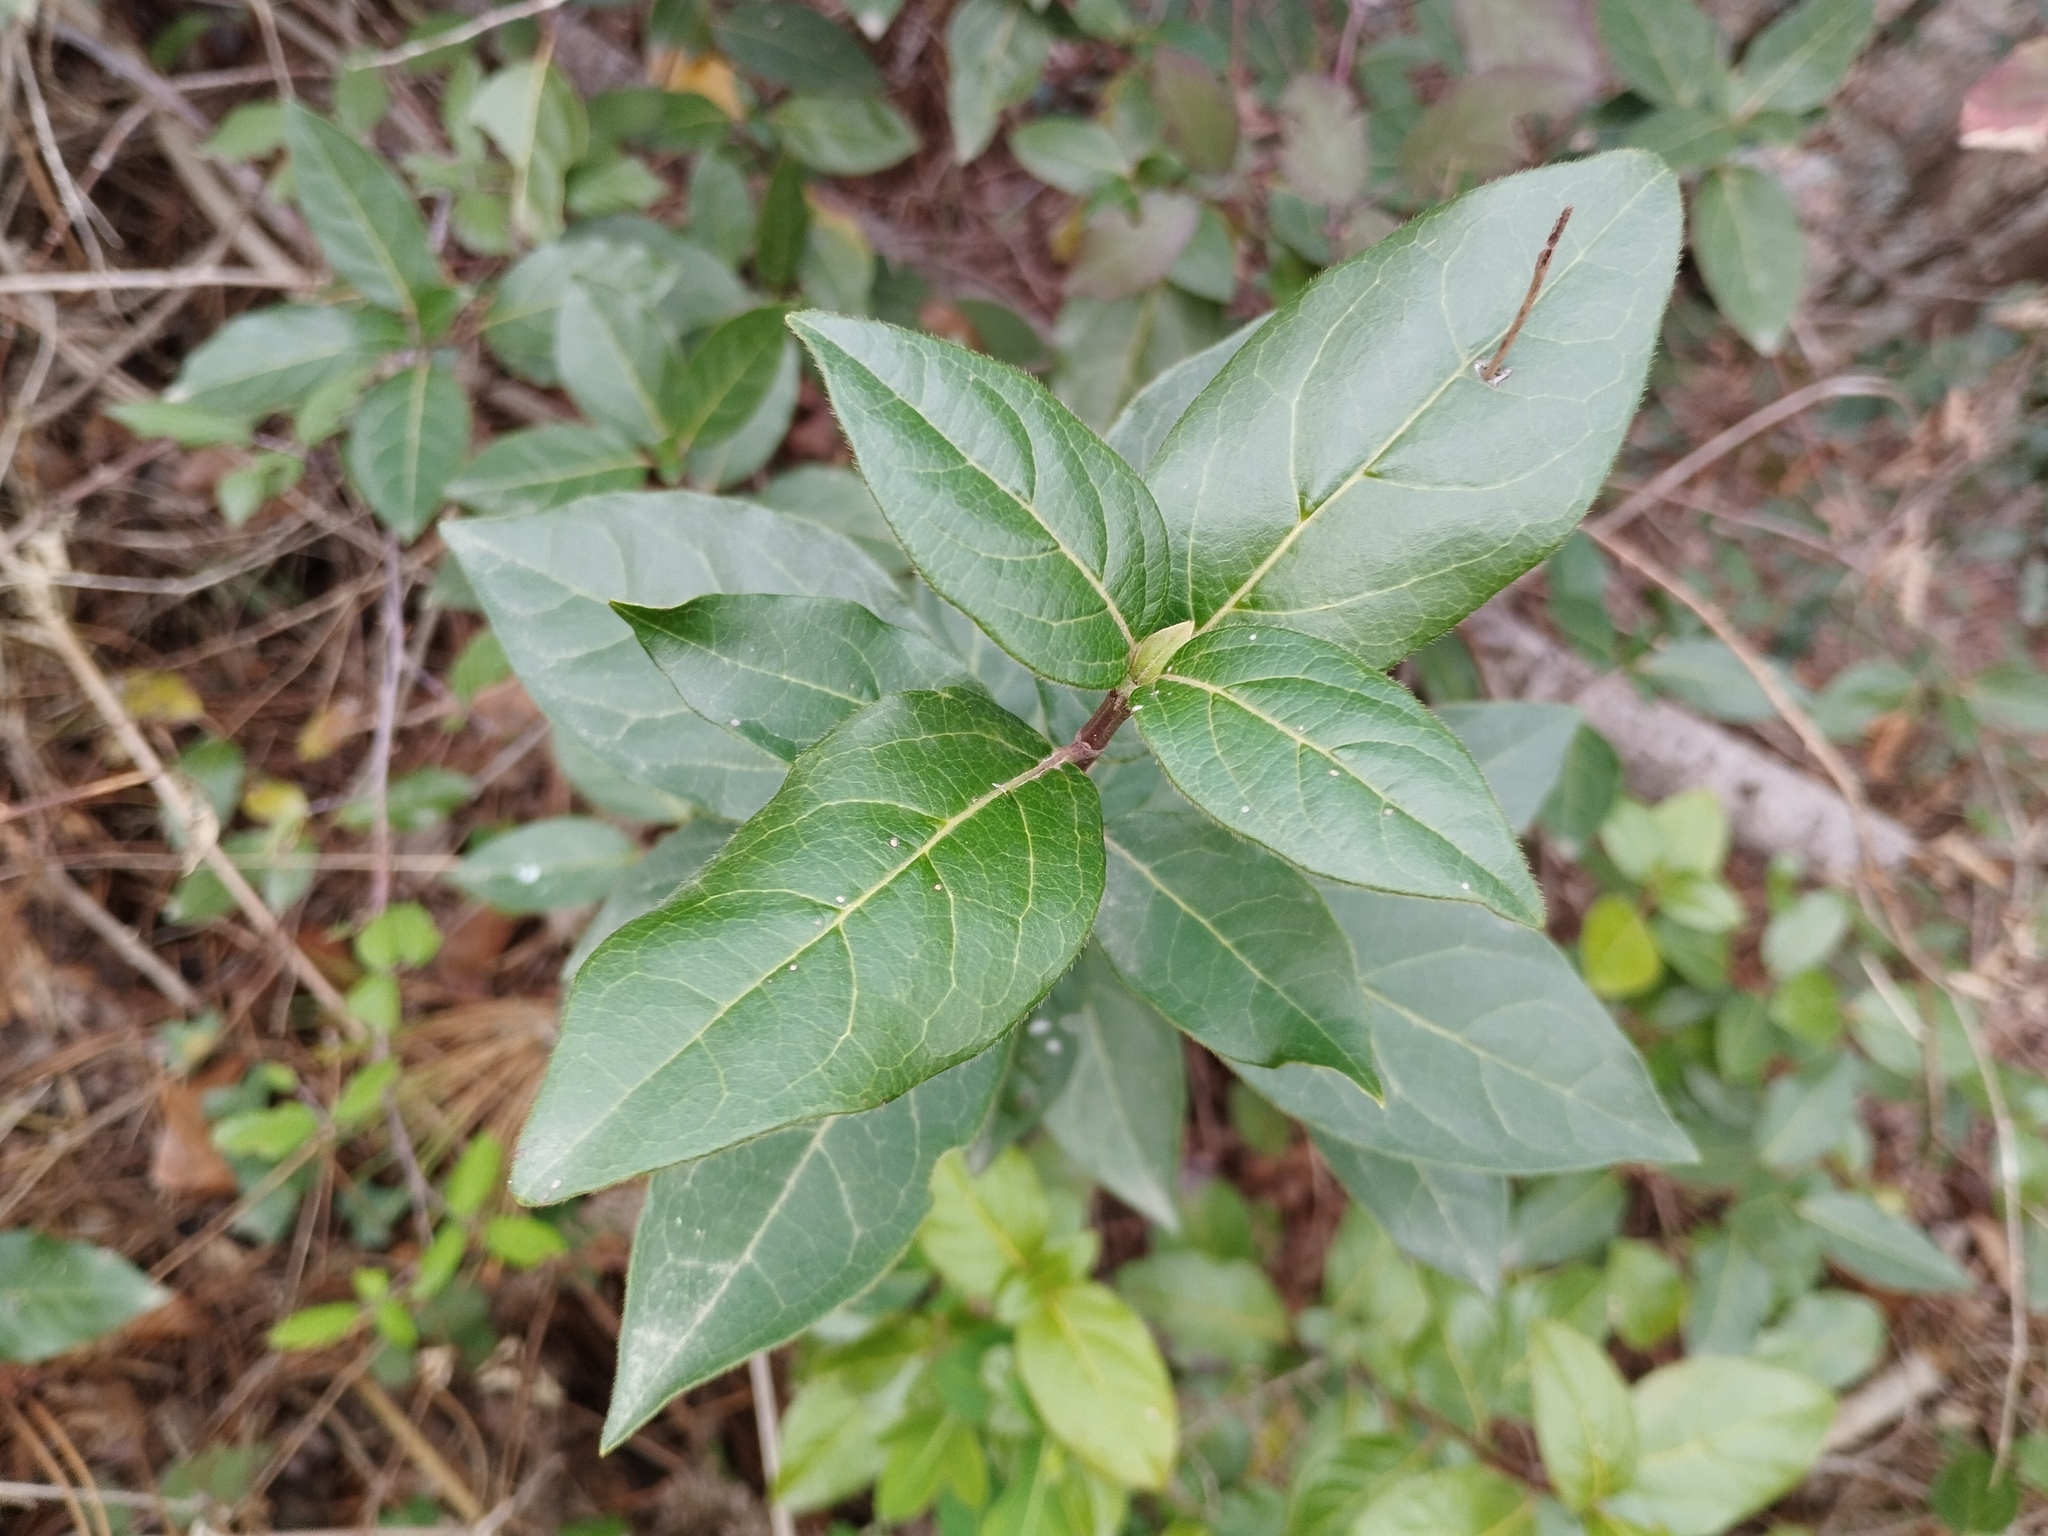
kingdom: Plantae
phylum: Tracheophyta
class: Magnoliopsida
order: Dipsacales
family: Viburnaceae
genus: Viburnum
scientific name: Viburnum tinus
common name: Laurustinus
